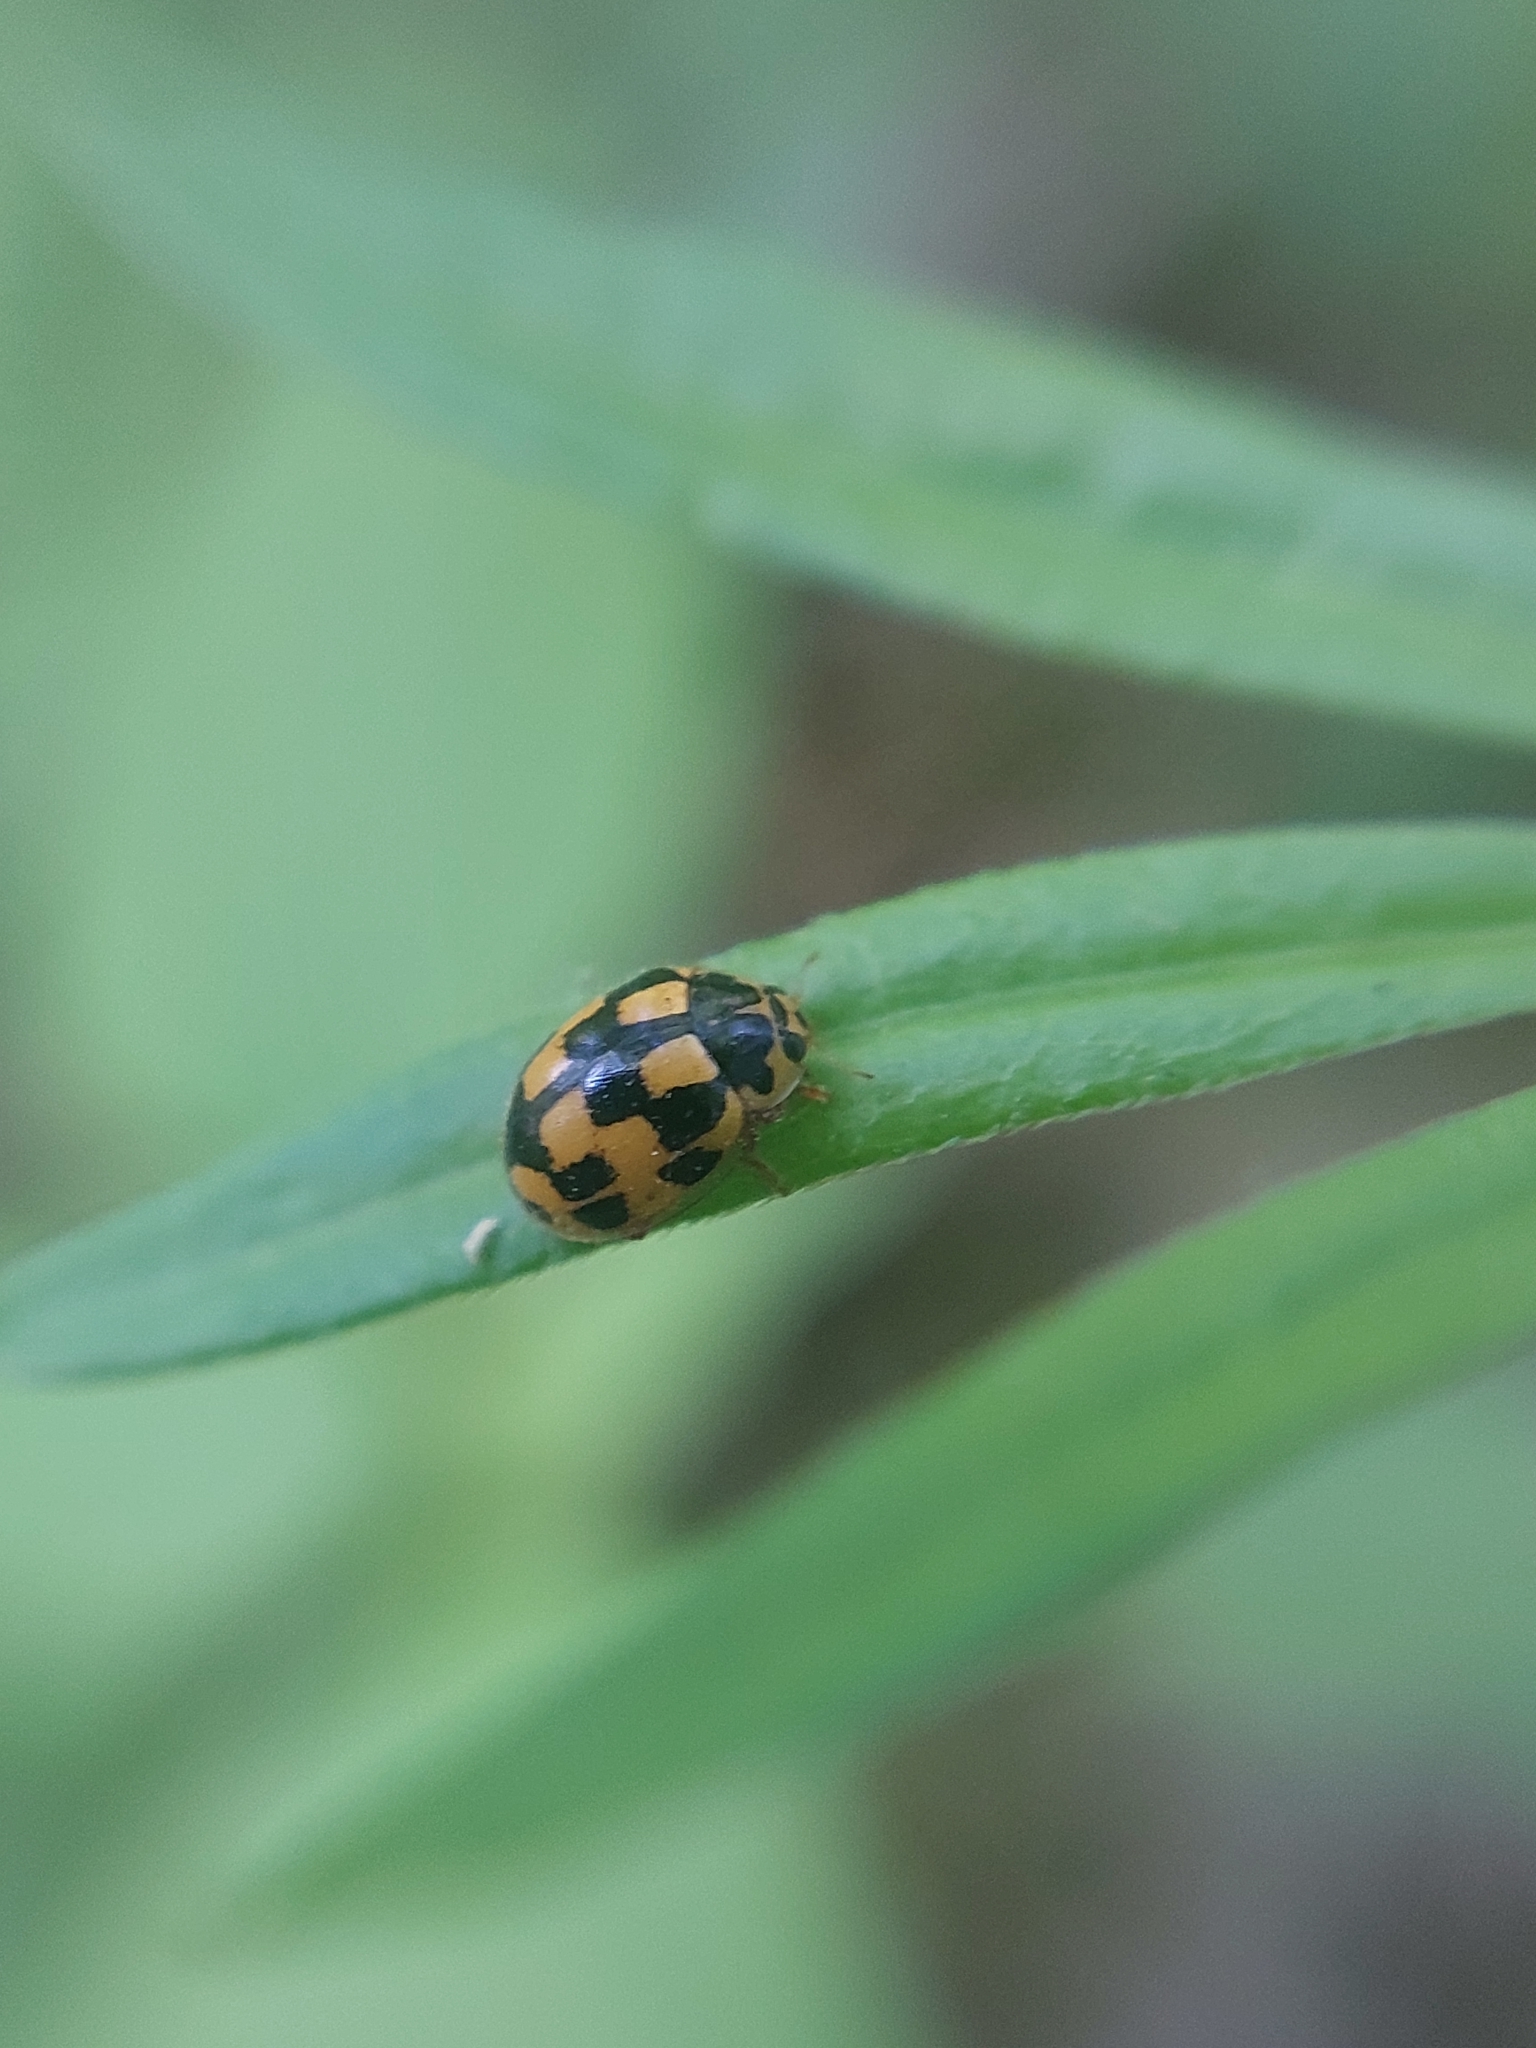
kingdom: Animalia
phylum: Arthropoda
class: Insecta
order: Coleoptera
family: Coccinellidae
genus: Propylaea
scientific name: Propylaea quatuordecimpunctata
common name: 14-spotted ladybird beetle
